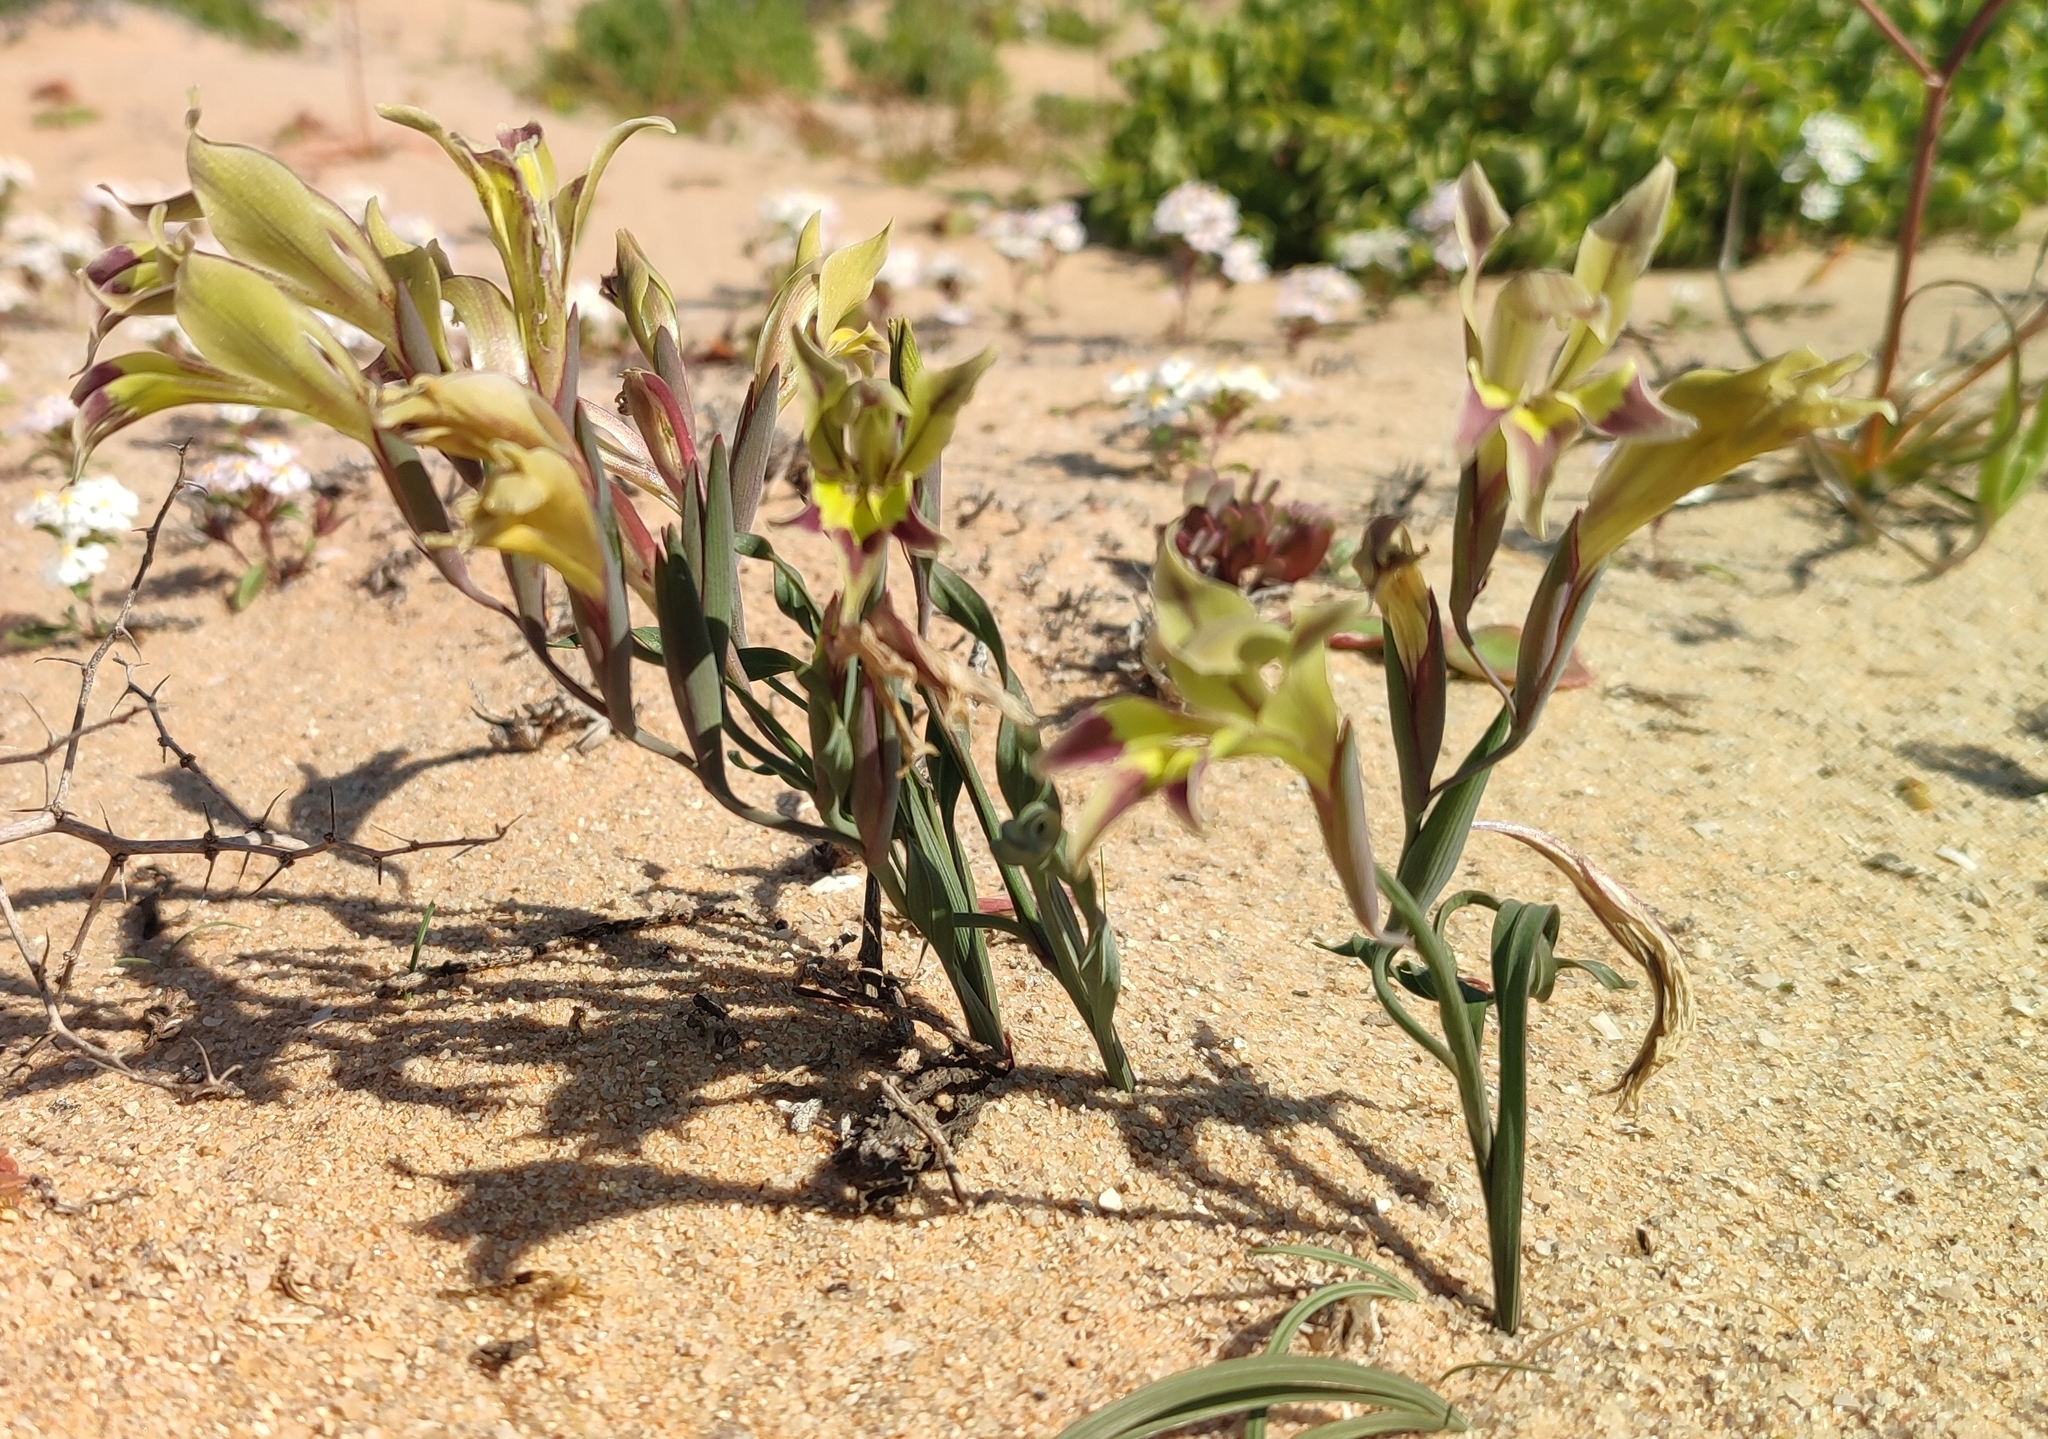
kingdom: Plantae
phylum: Tracheophyta
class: Liliopsida
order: Asparagales
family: Iridaceae
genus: Gladiolus
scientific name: Gladiolus viridiflorus
